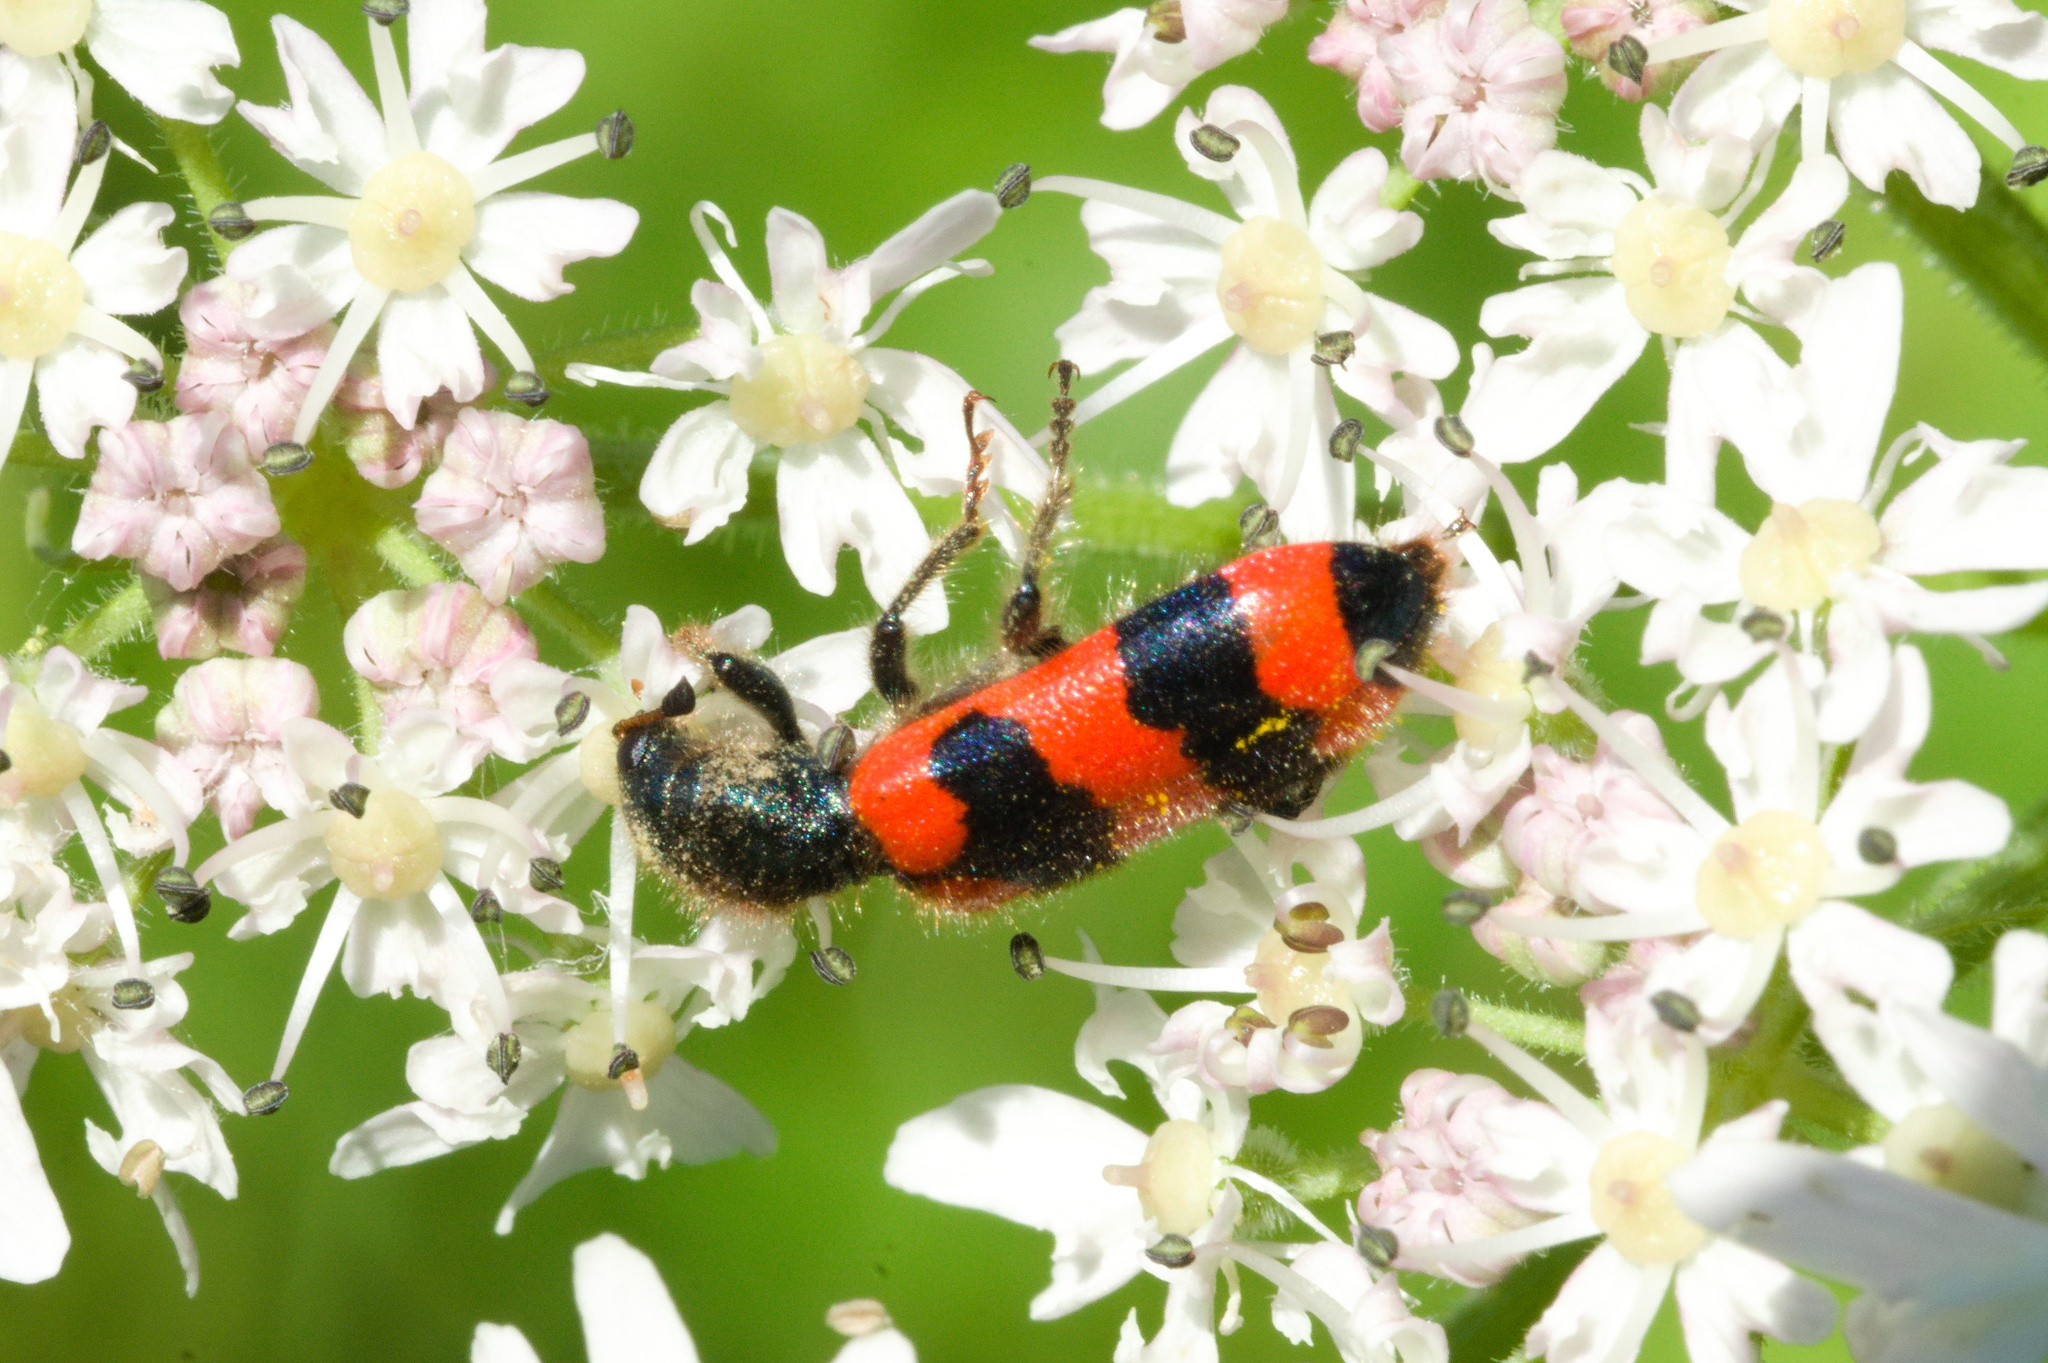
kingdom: Animalia
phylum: Arthropoda
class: Insecta
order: Coleoptera
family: Cleridae
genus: Trichodes
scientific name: Trichodes apiarius
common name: Bee-eating beetle
